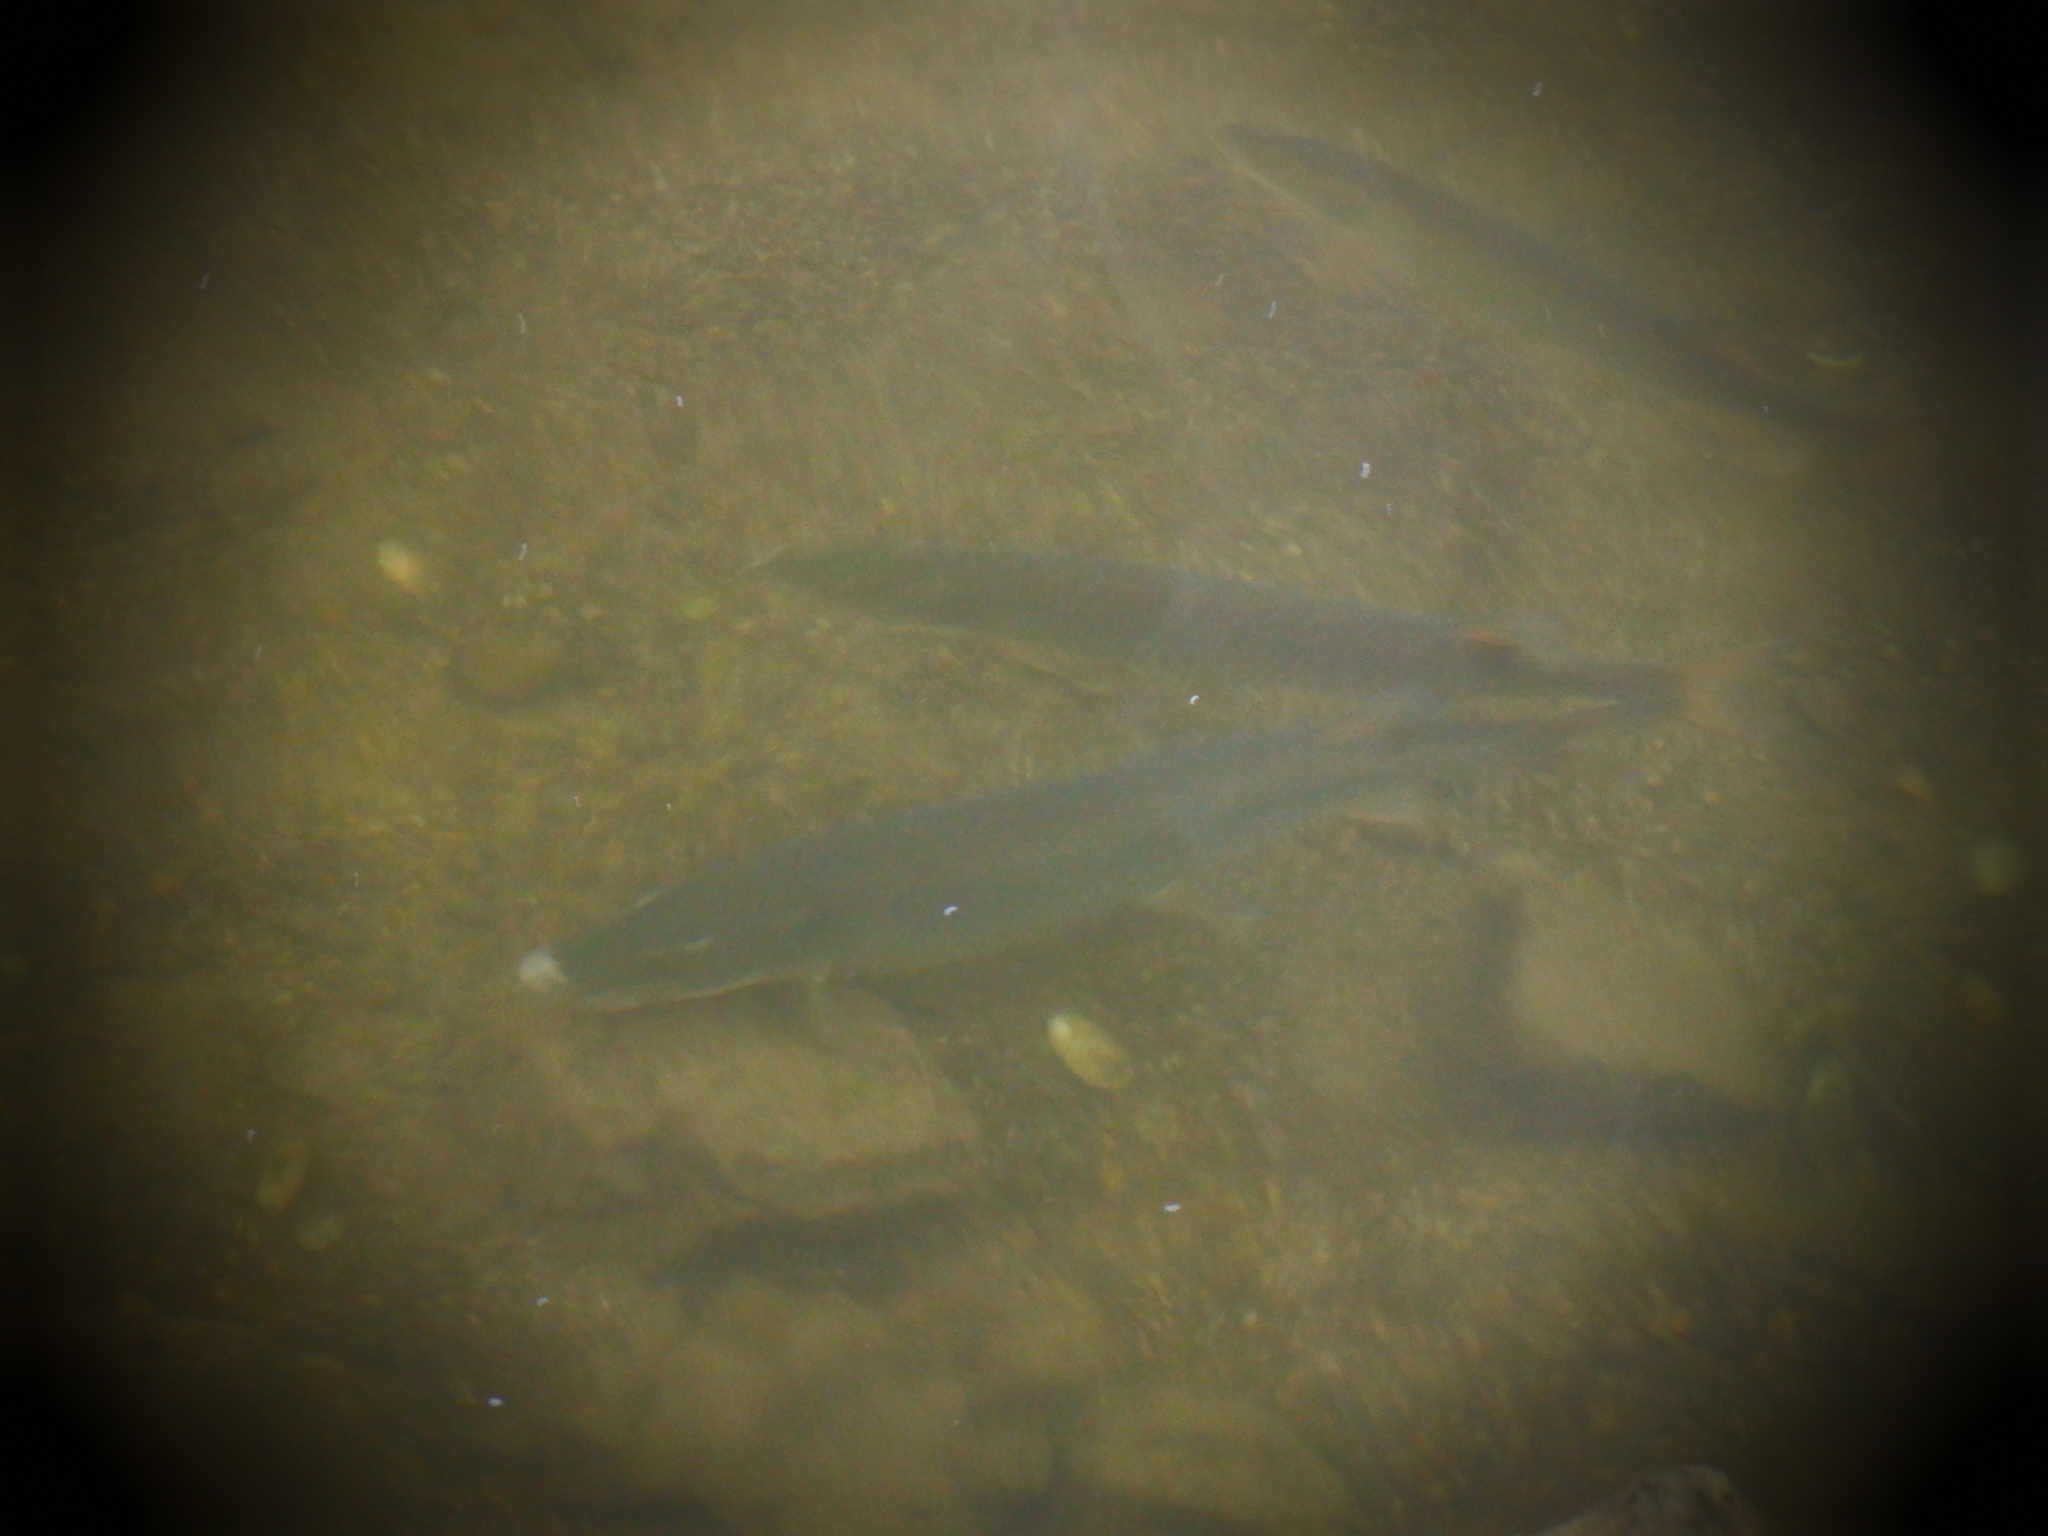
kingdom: Animalia
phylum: Chordata
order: Esociformes
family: Esocidae
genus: Esox
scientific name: Esox masquinongy
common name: Muskellunge
